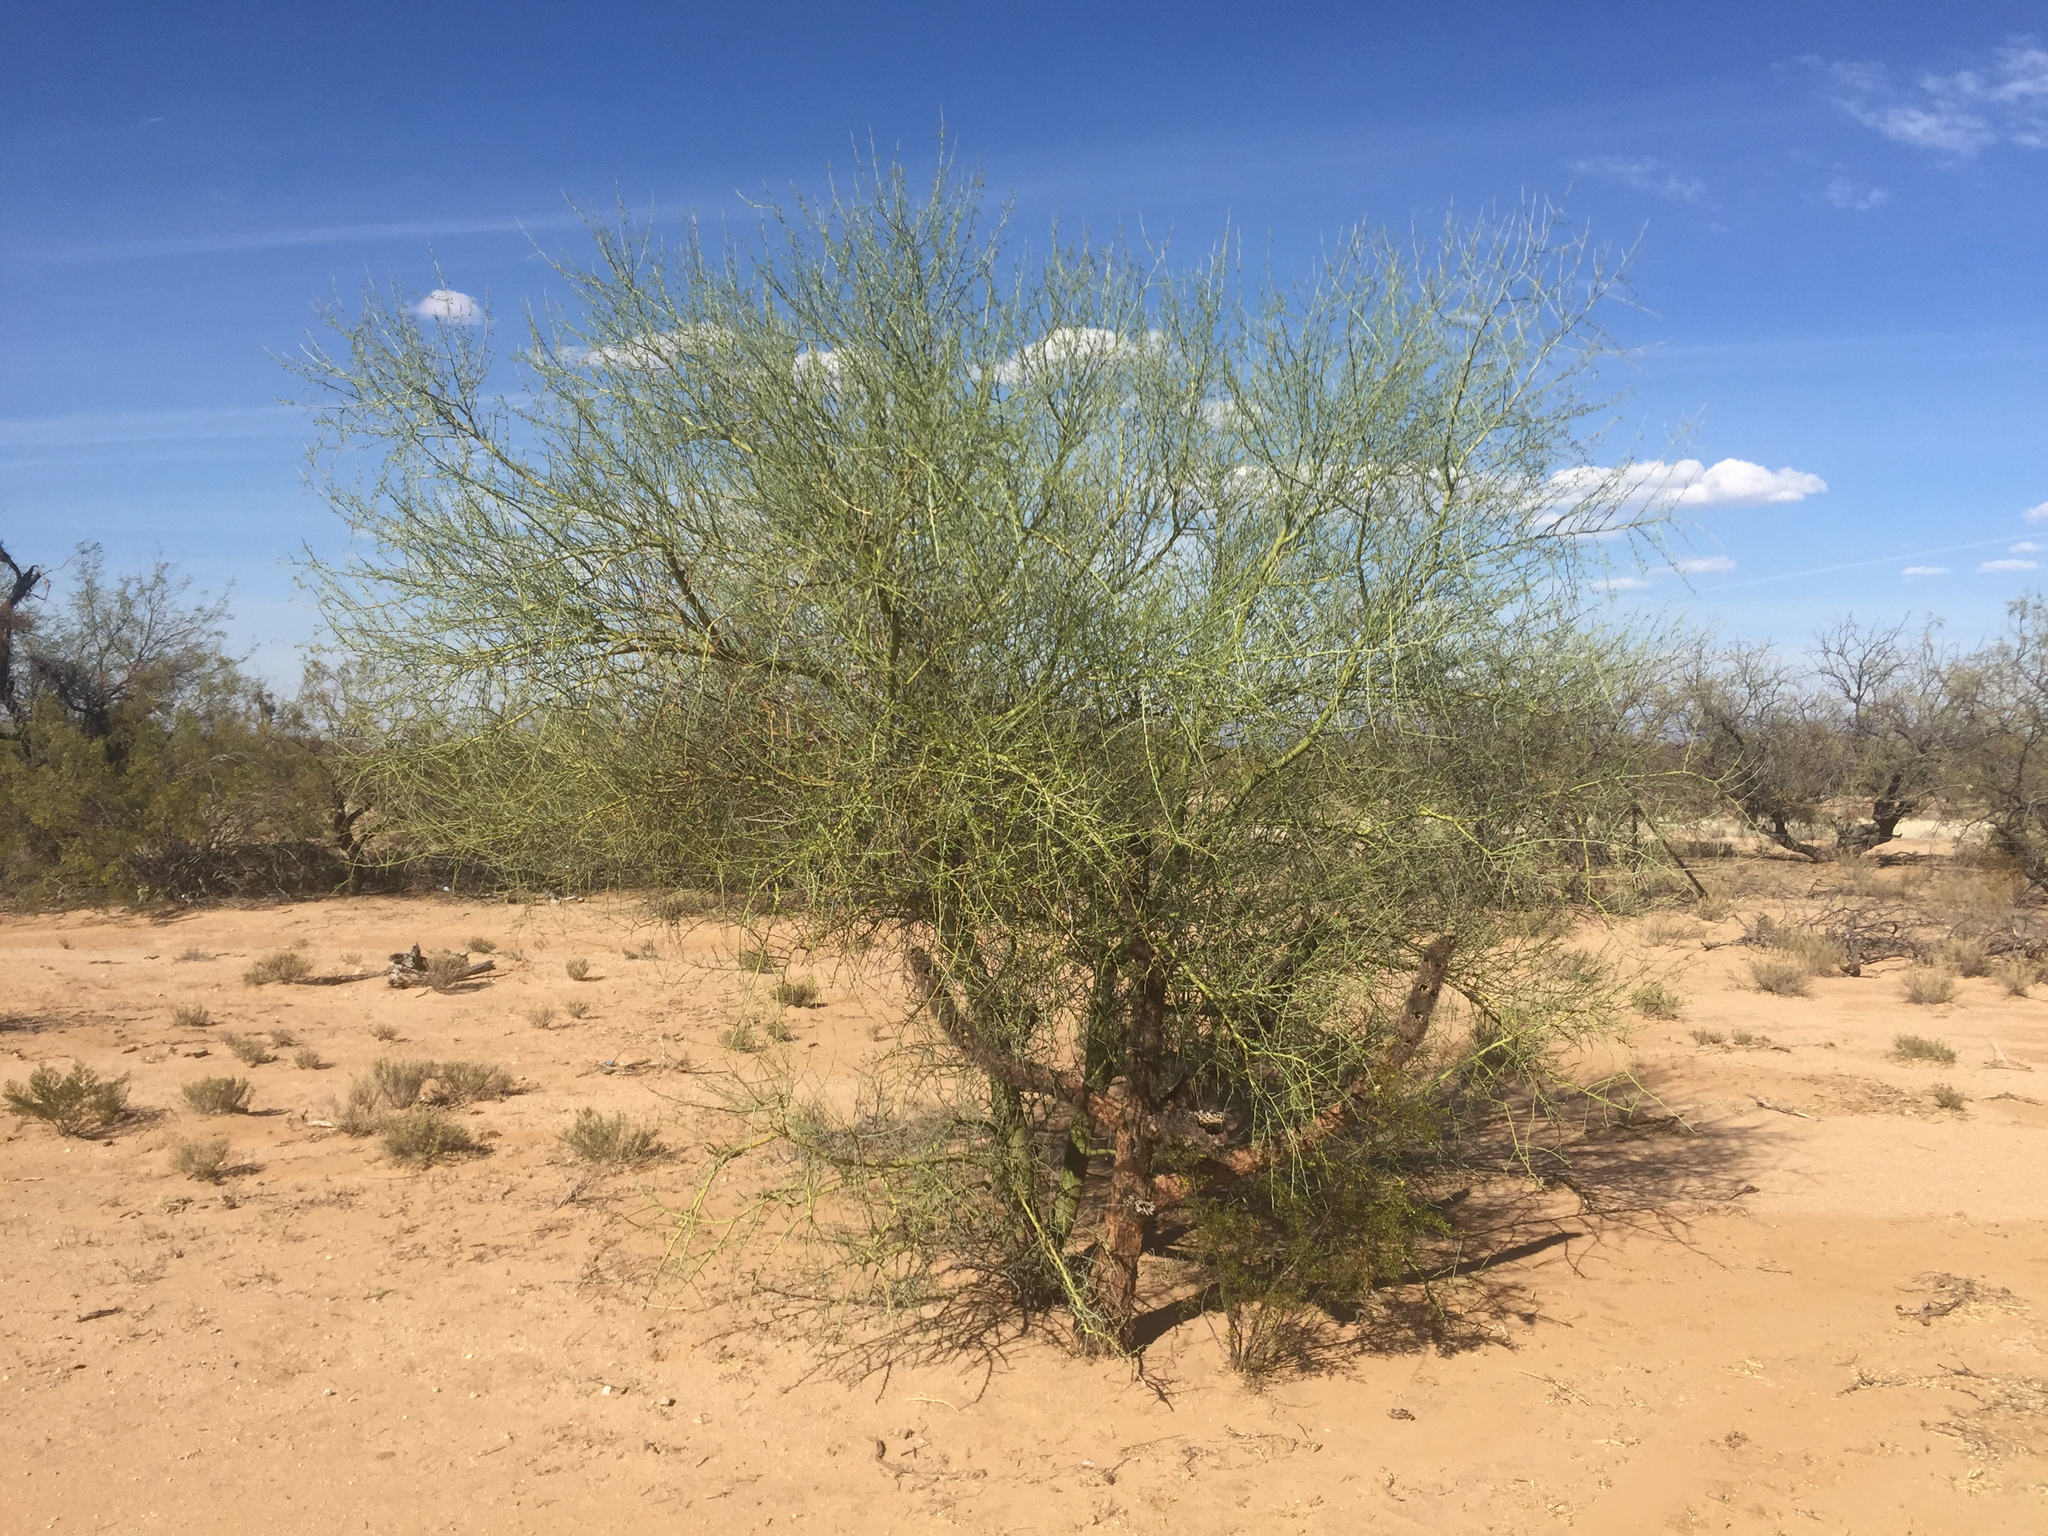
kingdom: Plantae
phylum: Tracheophyta
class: Magnoliopsida
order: Fabales
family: Fabaceae
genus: Parkinsonia
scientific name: Parkinsonia microphylla
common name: Yellow paloverde
